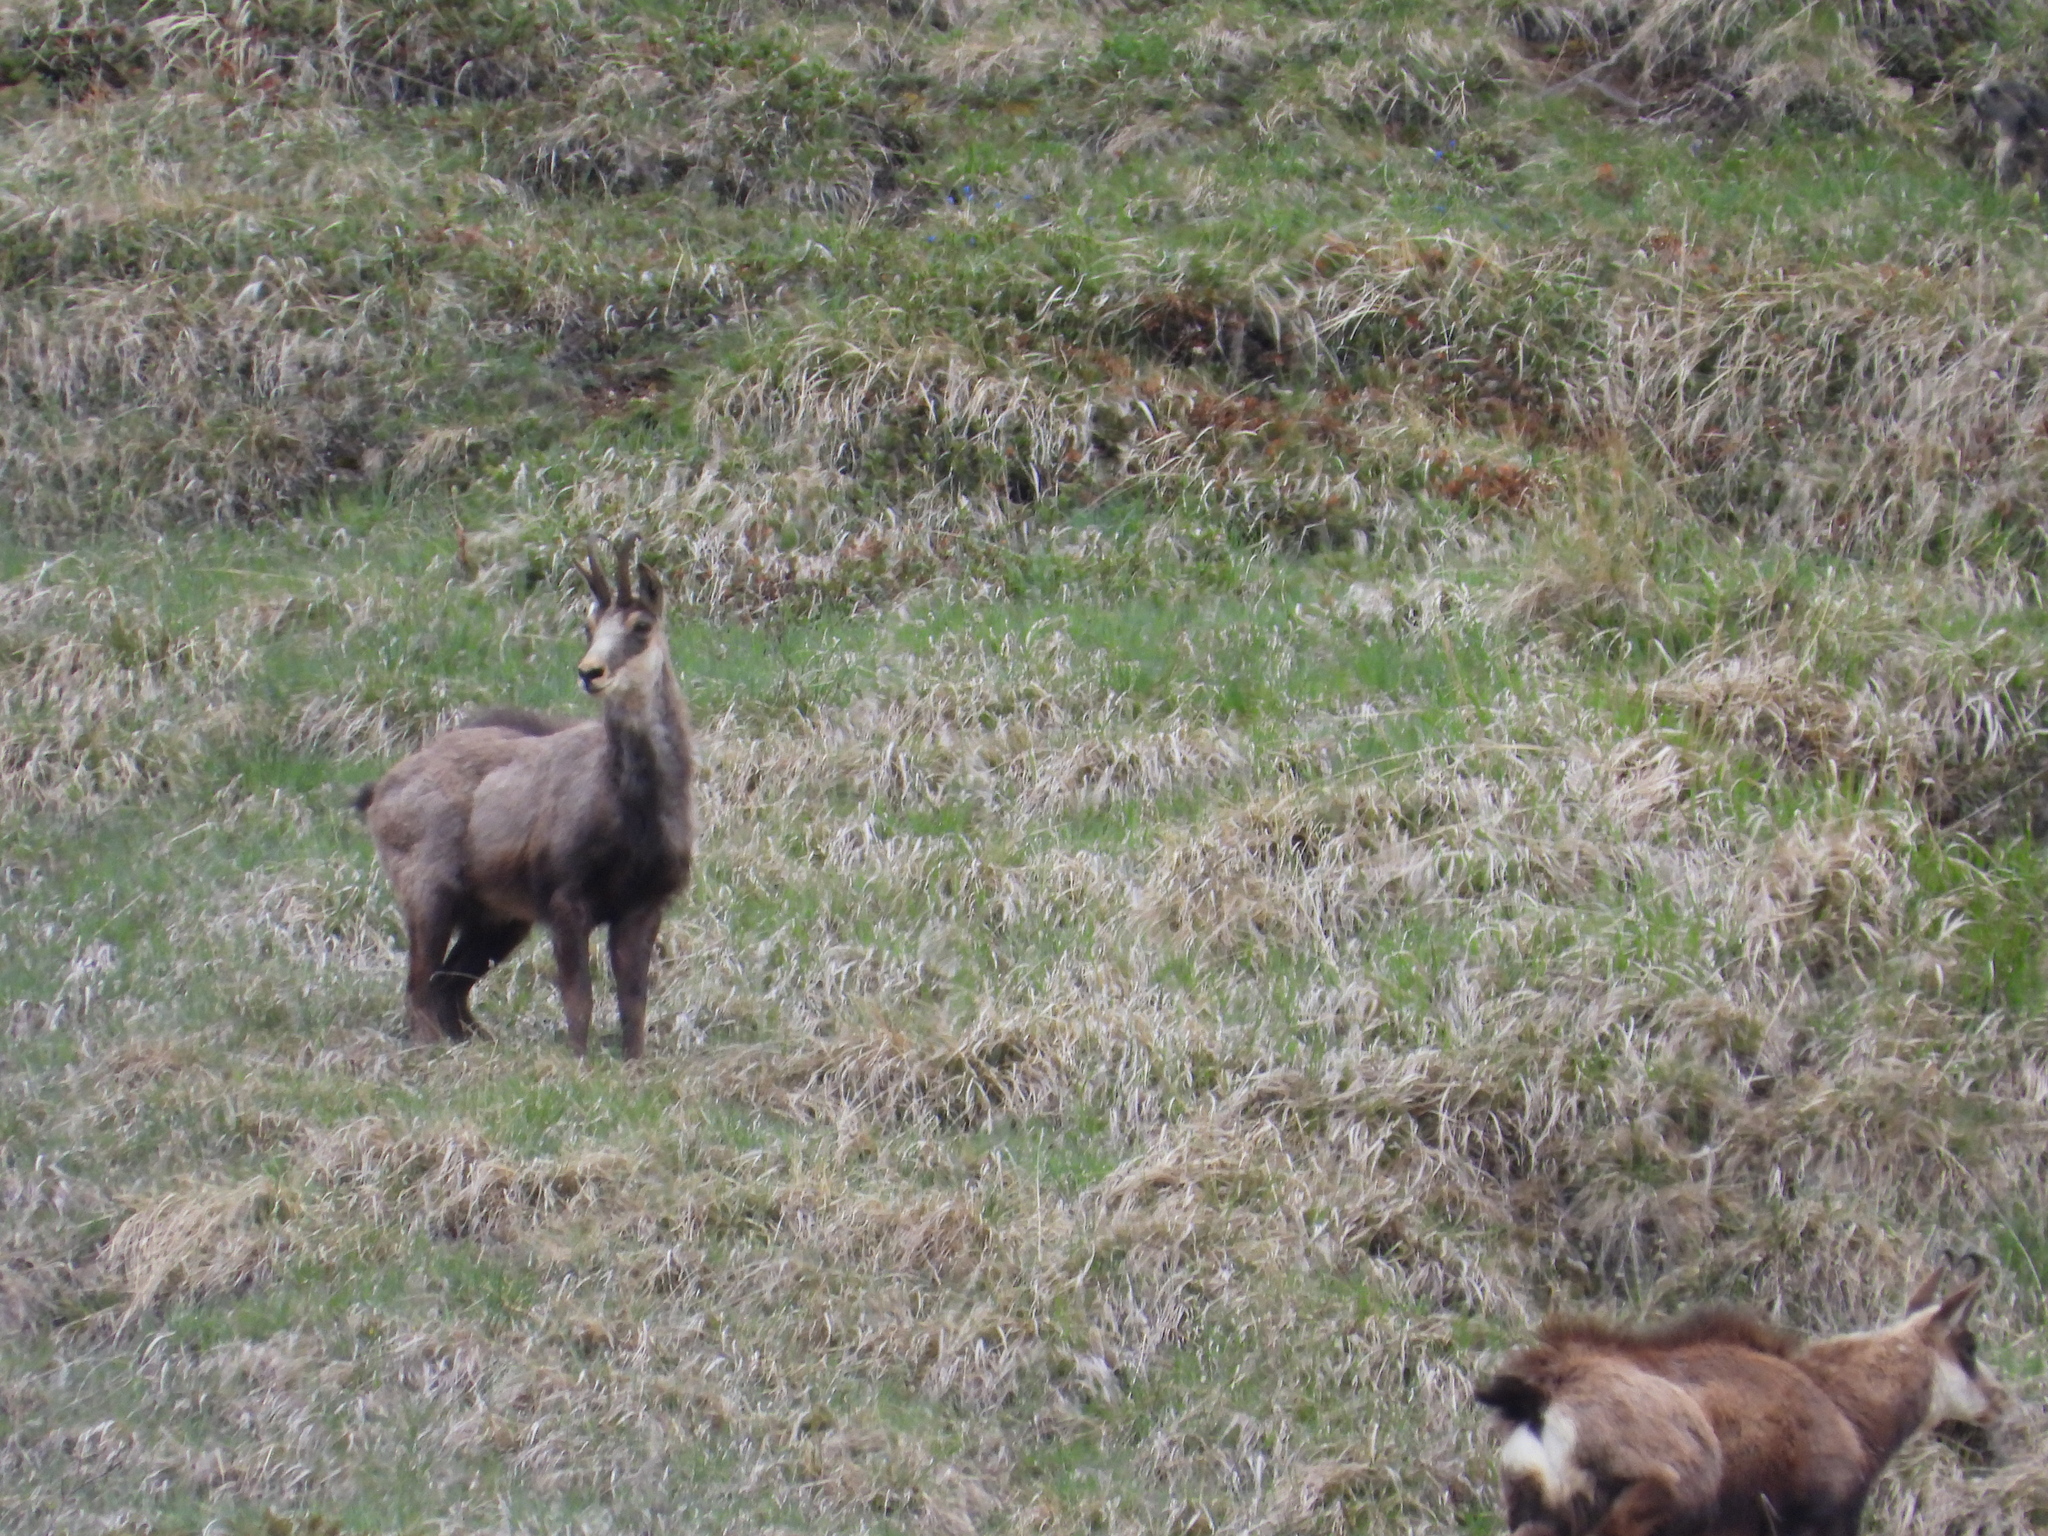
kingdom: Animalia
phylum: Chordata
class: Mammalia
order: Artiodactyla
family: Bovidae
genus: Rupicapra
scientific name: Rupicapra rupicapra
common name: Chamois
